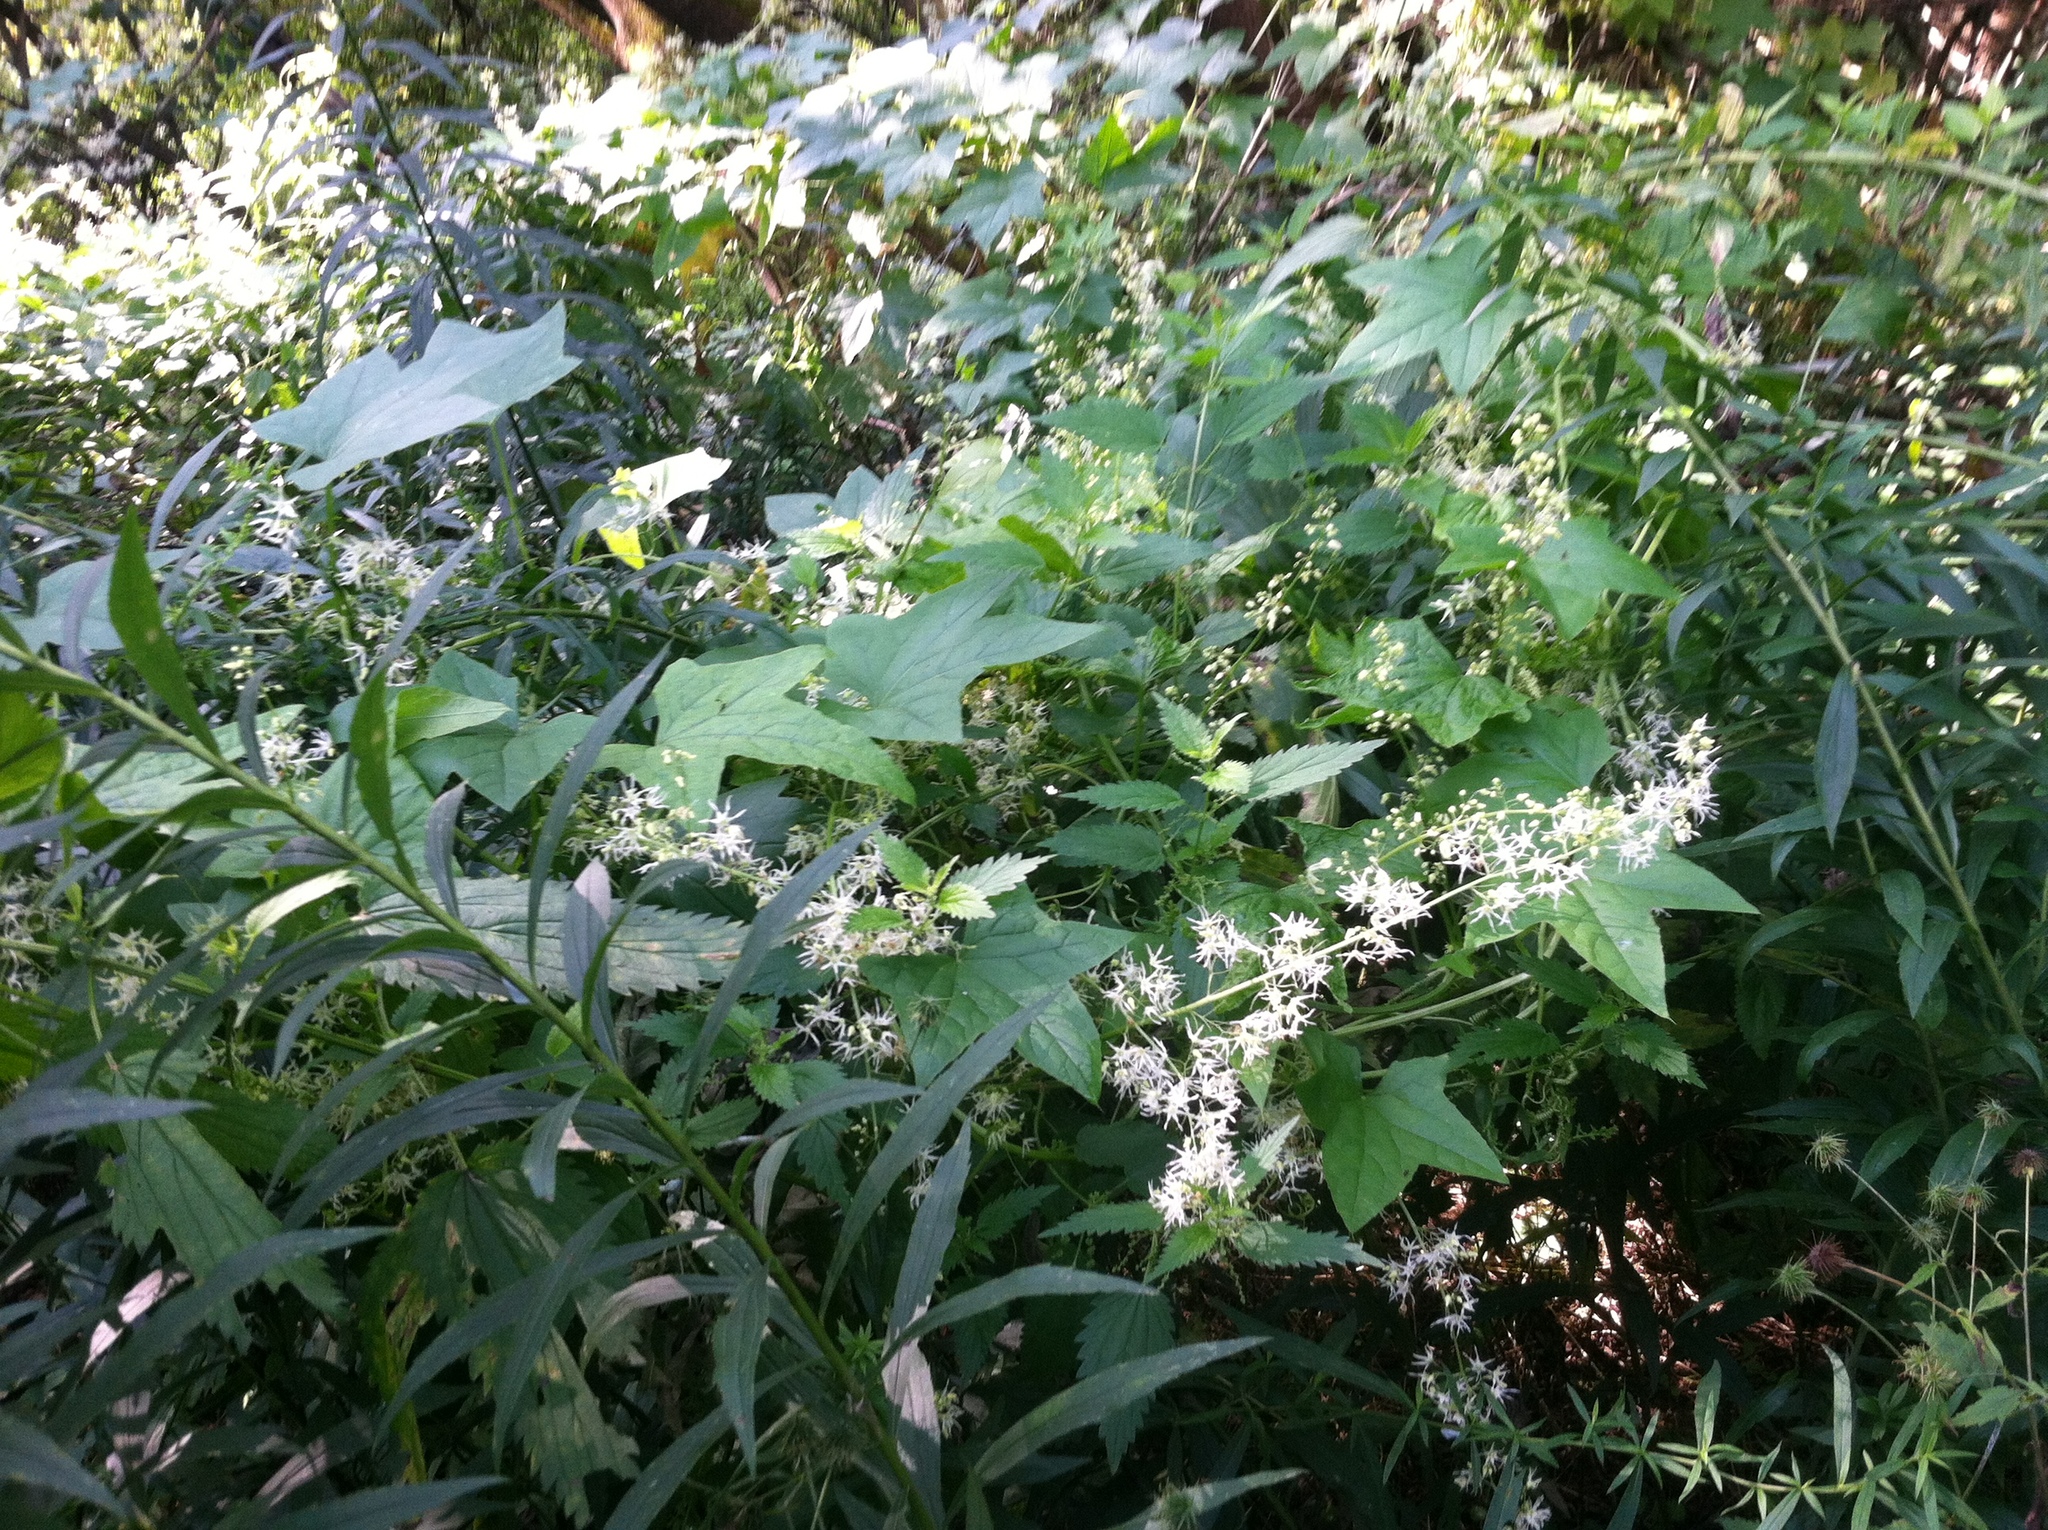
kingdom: Plantae
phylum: Tracheophyta
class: Magnoliopsida
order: Cucurbitales
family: Cucurbitaceae
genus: Echinocystis
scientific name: Echinocystis lobata
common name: Wild cucumber
